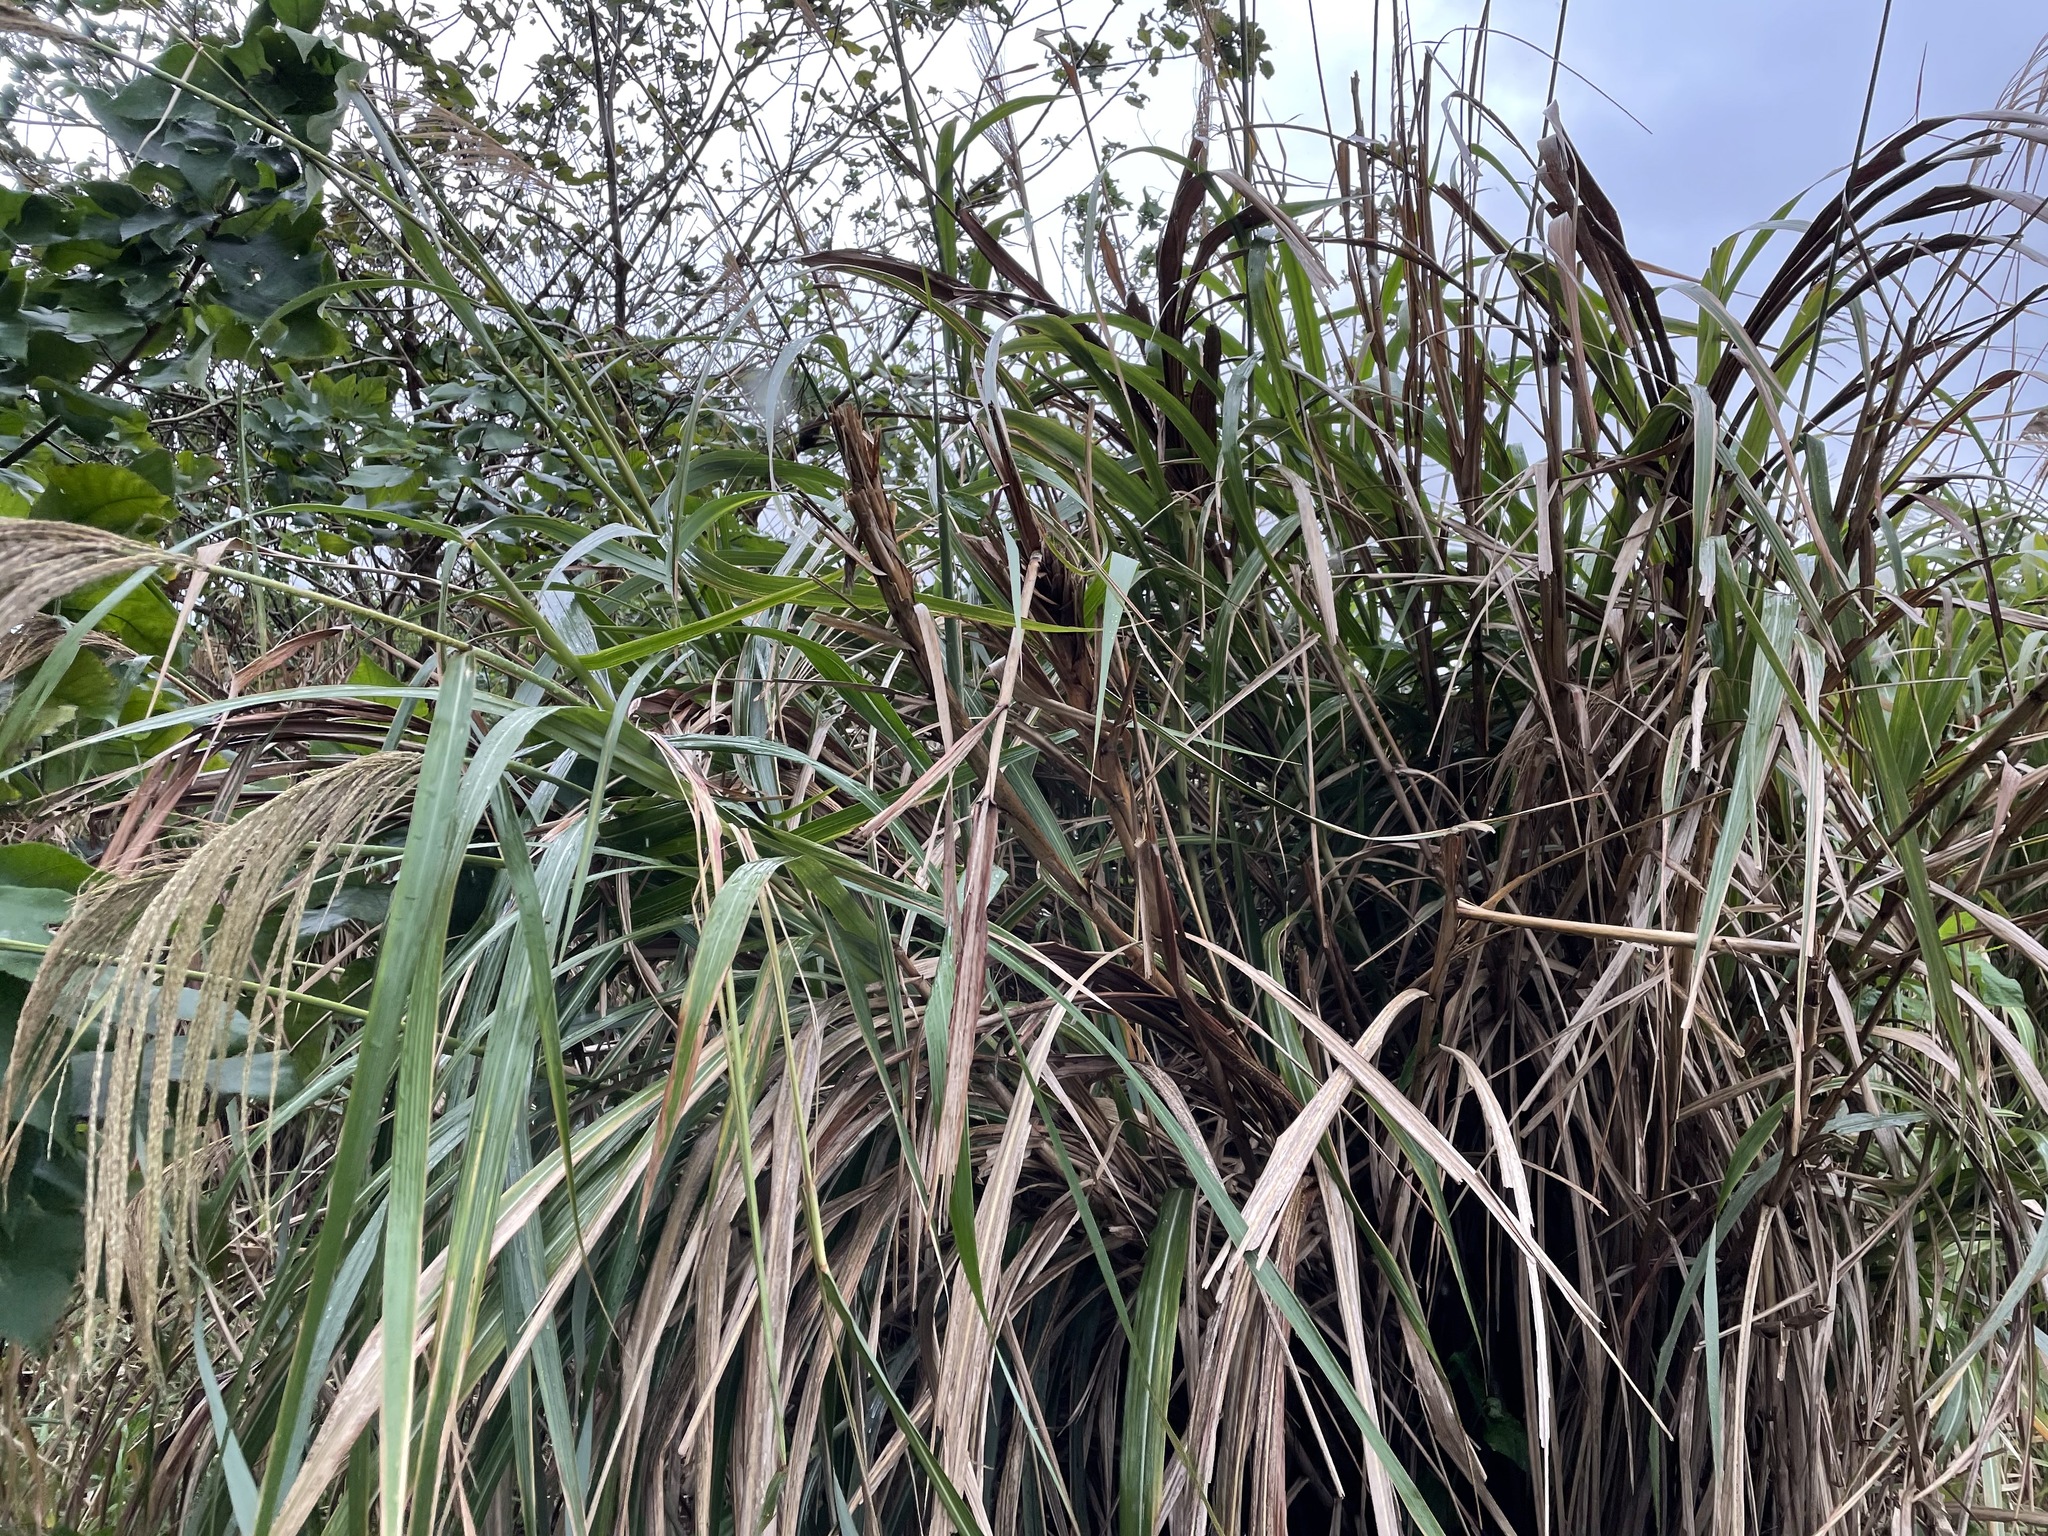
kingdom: Plantae
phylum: Tracheophyta
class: Liliopsida
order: Poales
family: Poaceae
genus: Miscanthus
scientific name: Miscanthus sinensis
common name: Chinese silvergrass
